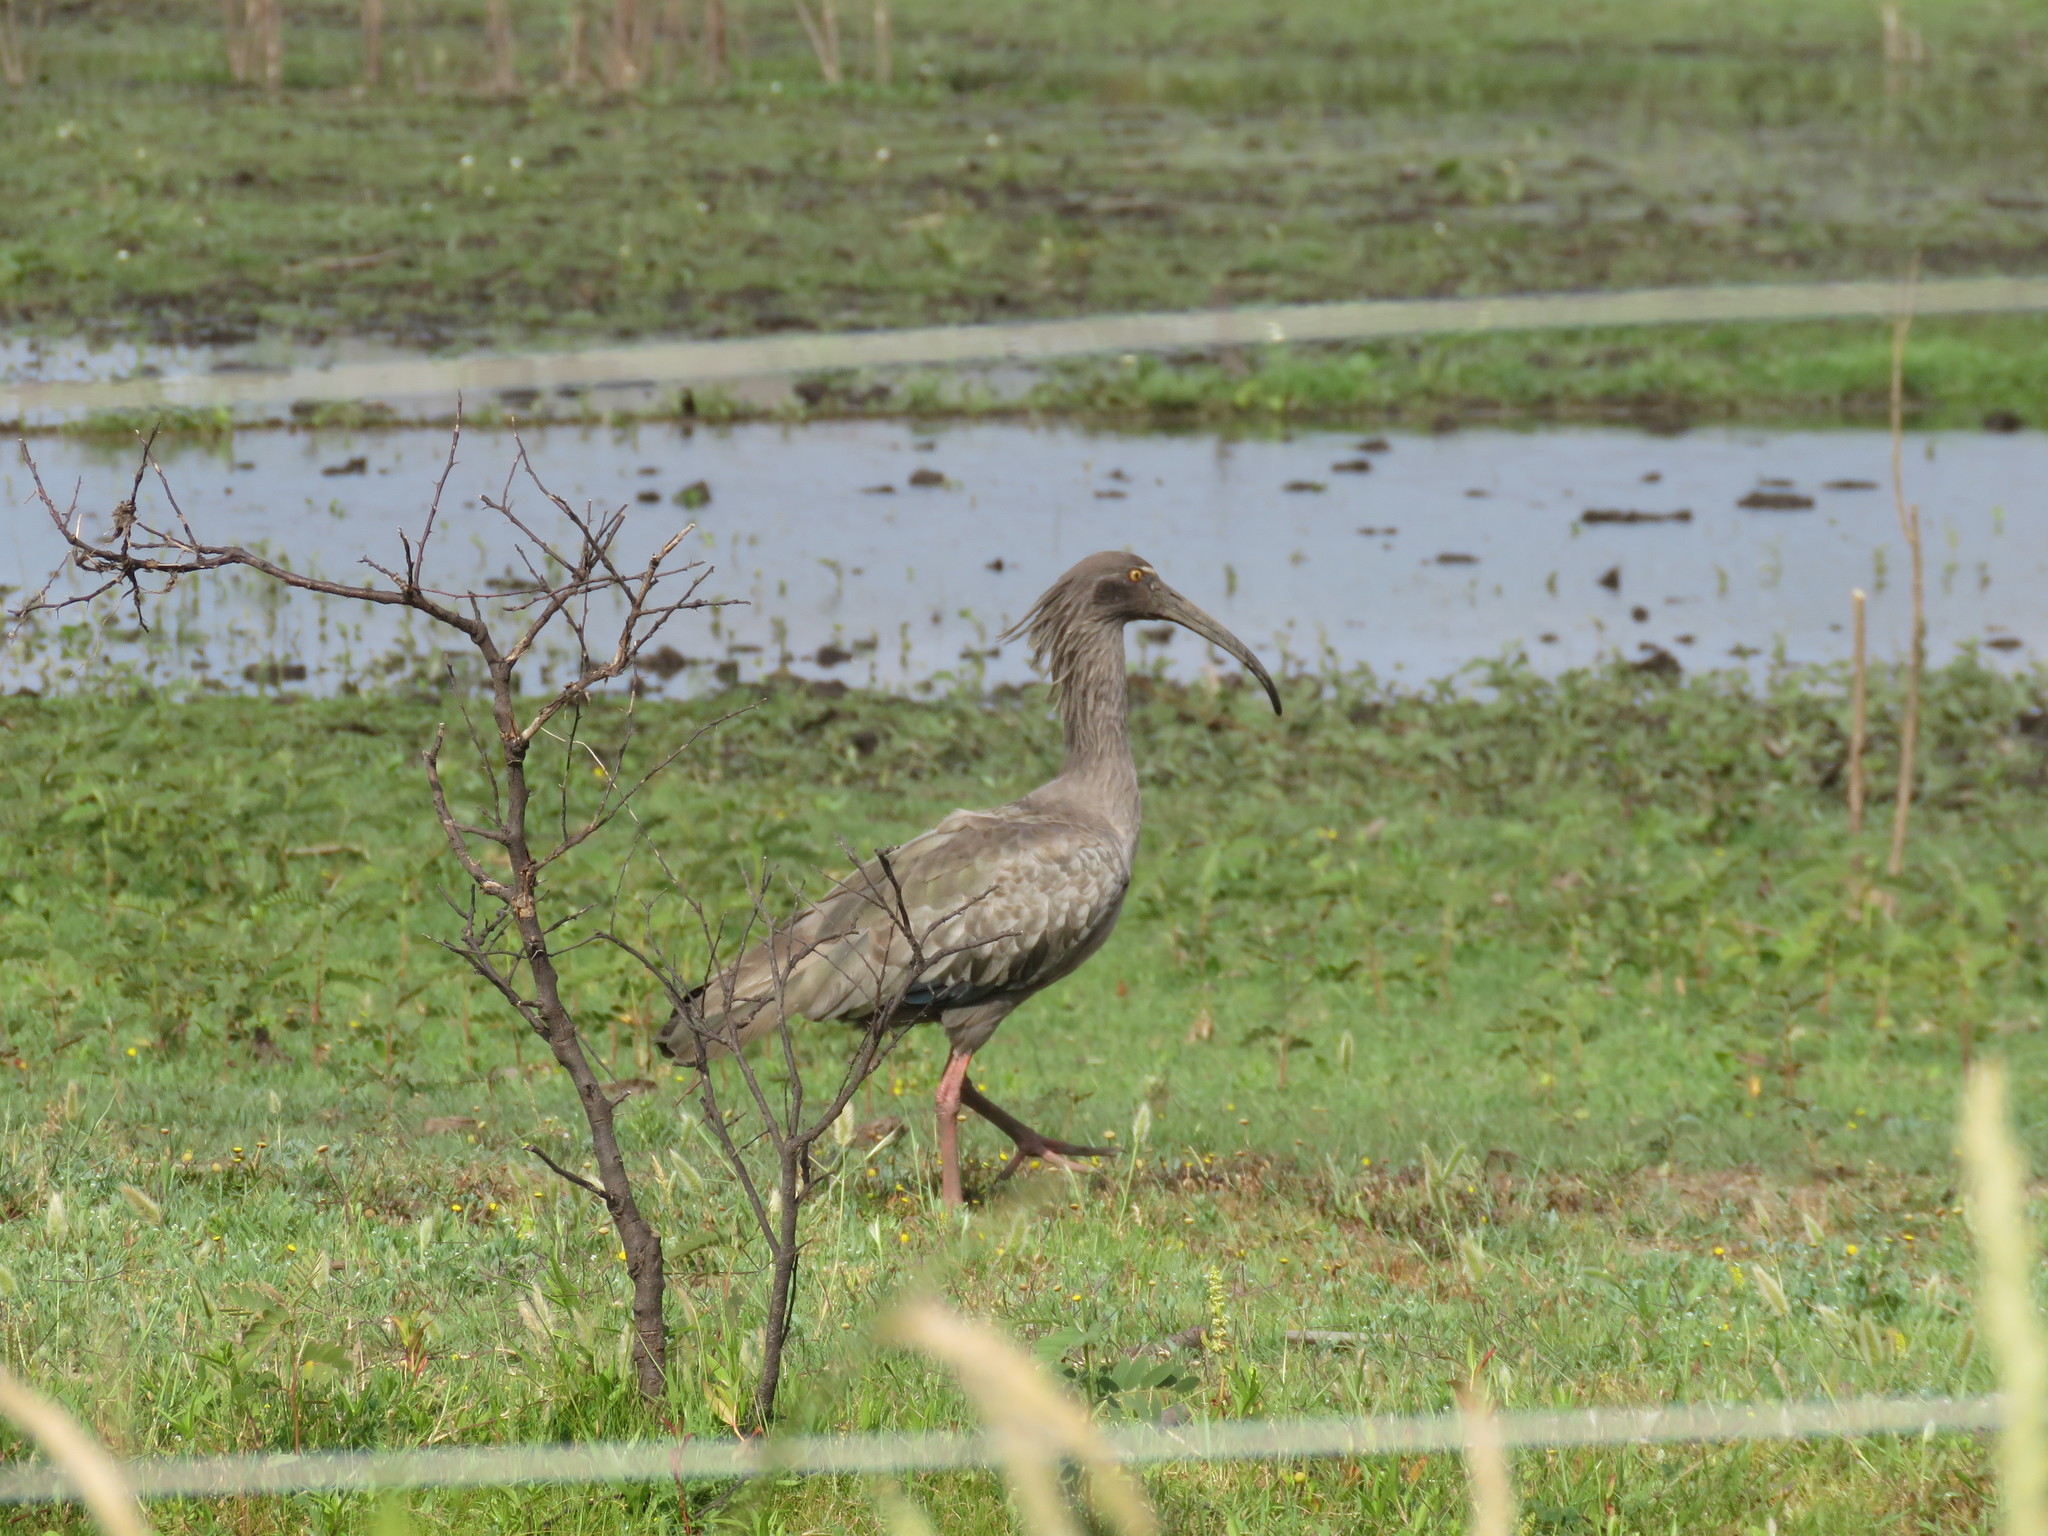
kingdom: Animalia
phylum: Chordata
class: Aves
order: Pelecaniformes
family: Threskiornithidae
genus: Theristicus
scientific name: Theristicus caerulescens
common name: Plumbeous ibis
